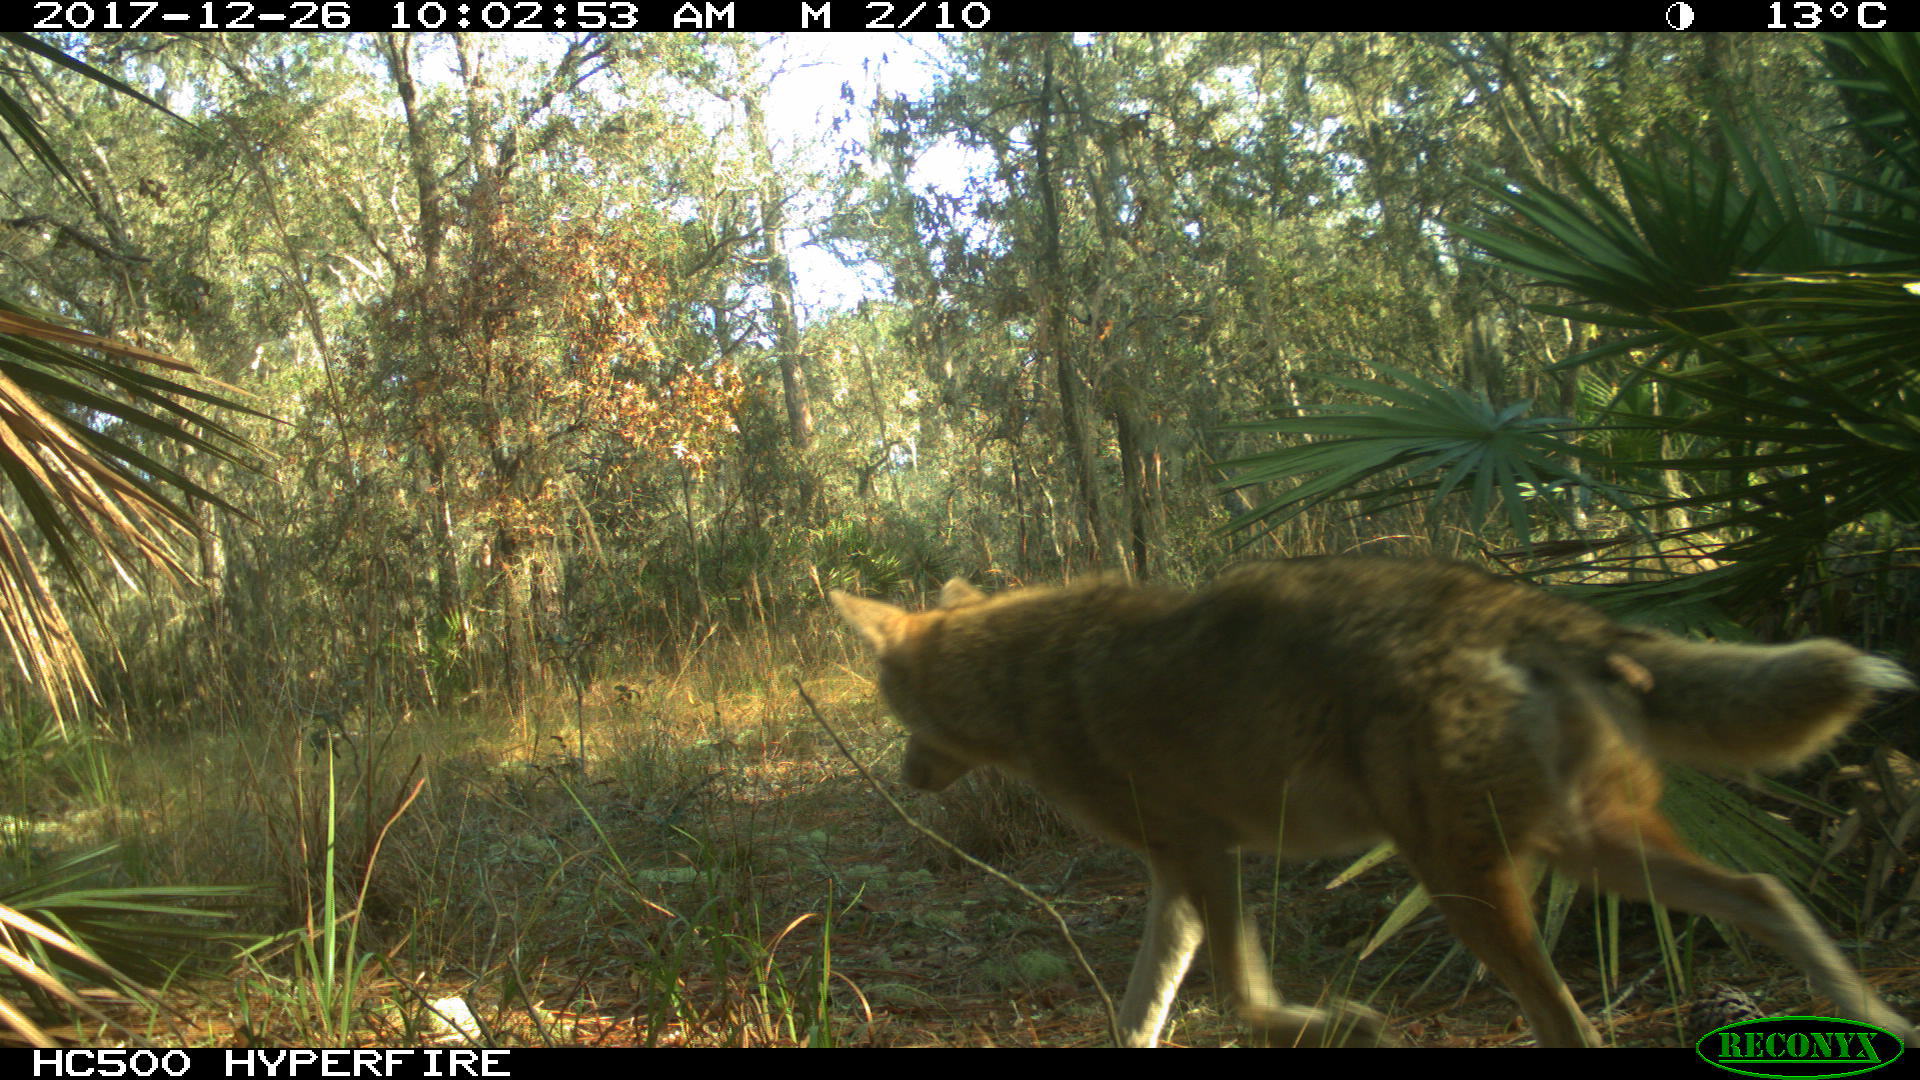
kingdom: Animalia
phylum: Chordata
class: Mammalia
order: Carnivora
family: Canidae
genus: Canis
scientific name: Canis latrans
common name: Coyote
